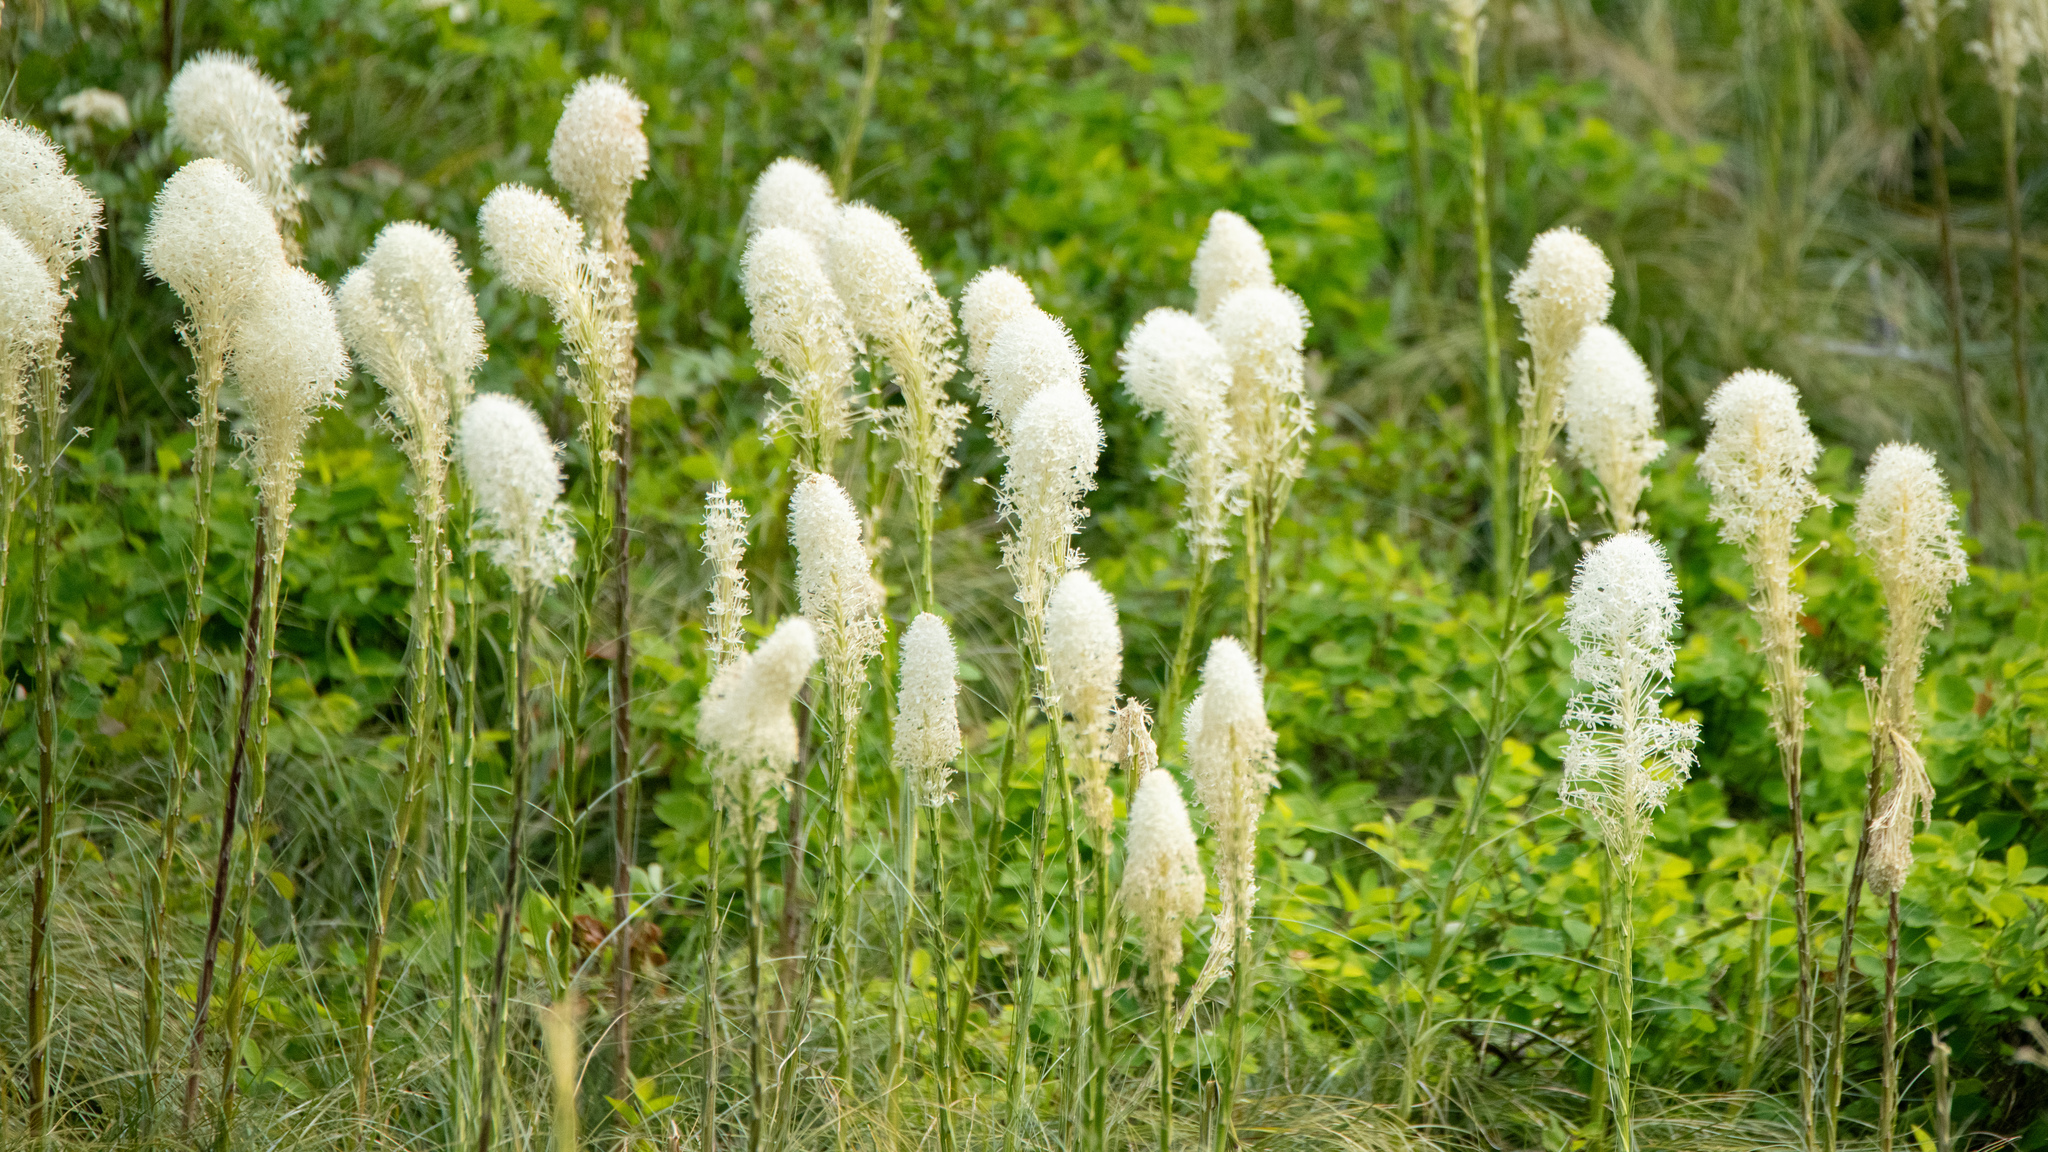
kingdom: Plantae
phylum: Tracheophyta
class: Liliopsida
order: Liliales
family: Melanthiaceae
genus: Xerophyllum
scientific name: Xerophyllum tenax
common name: Bear-grass
